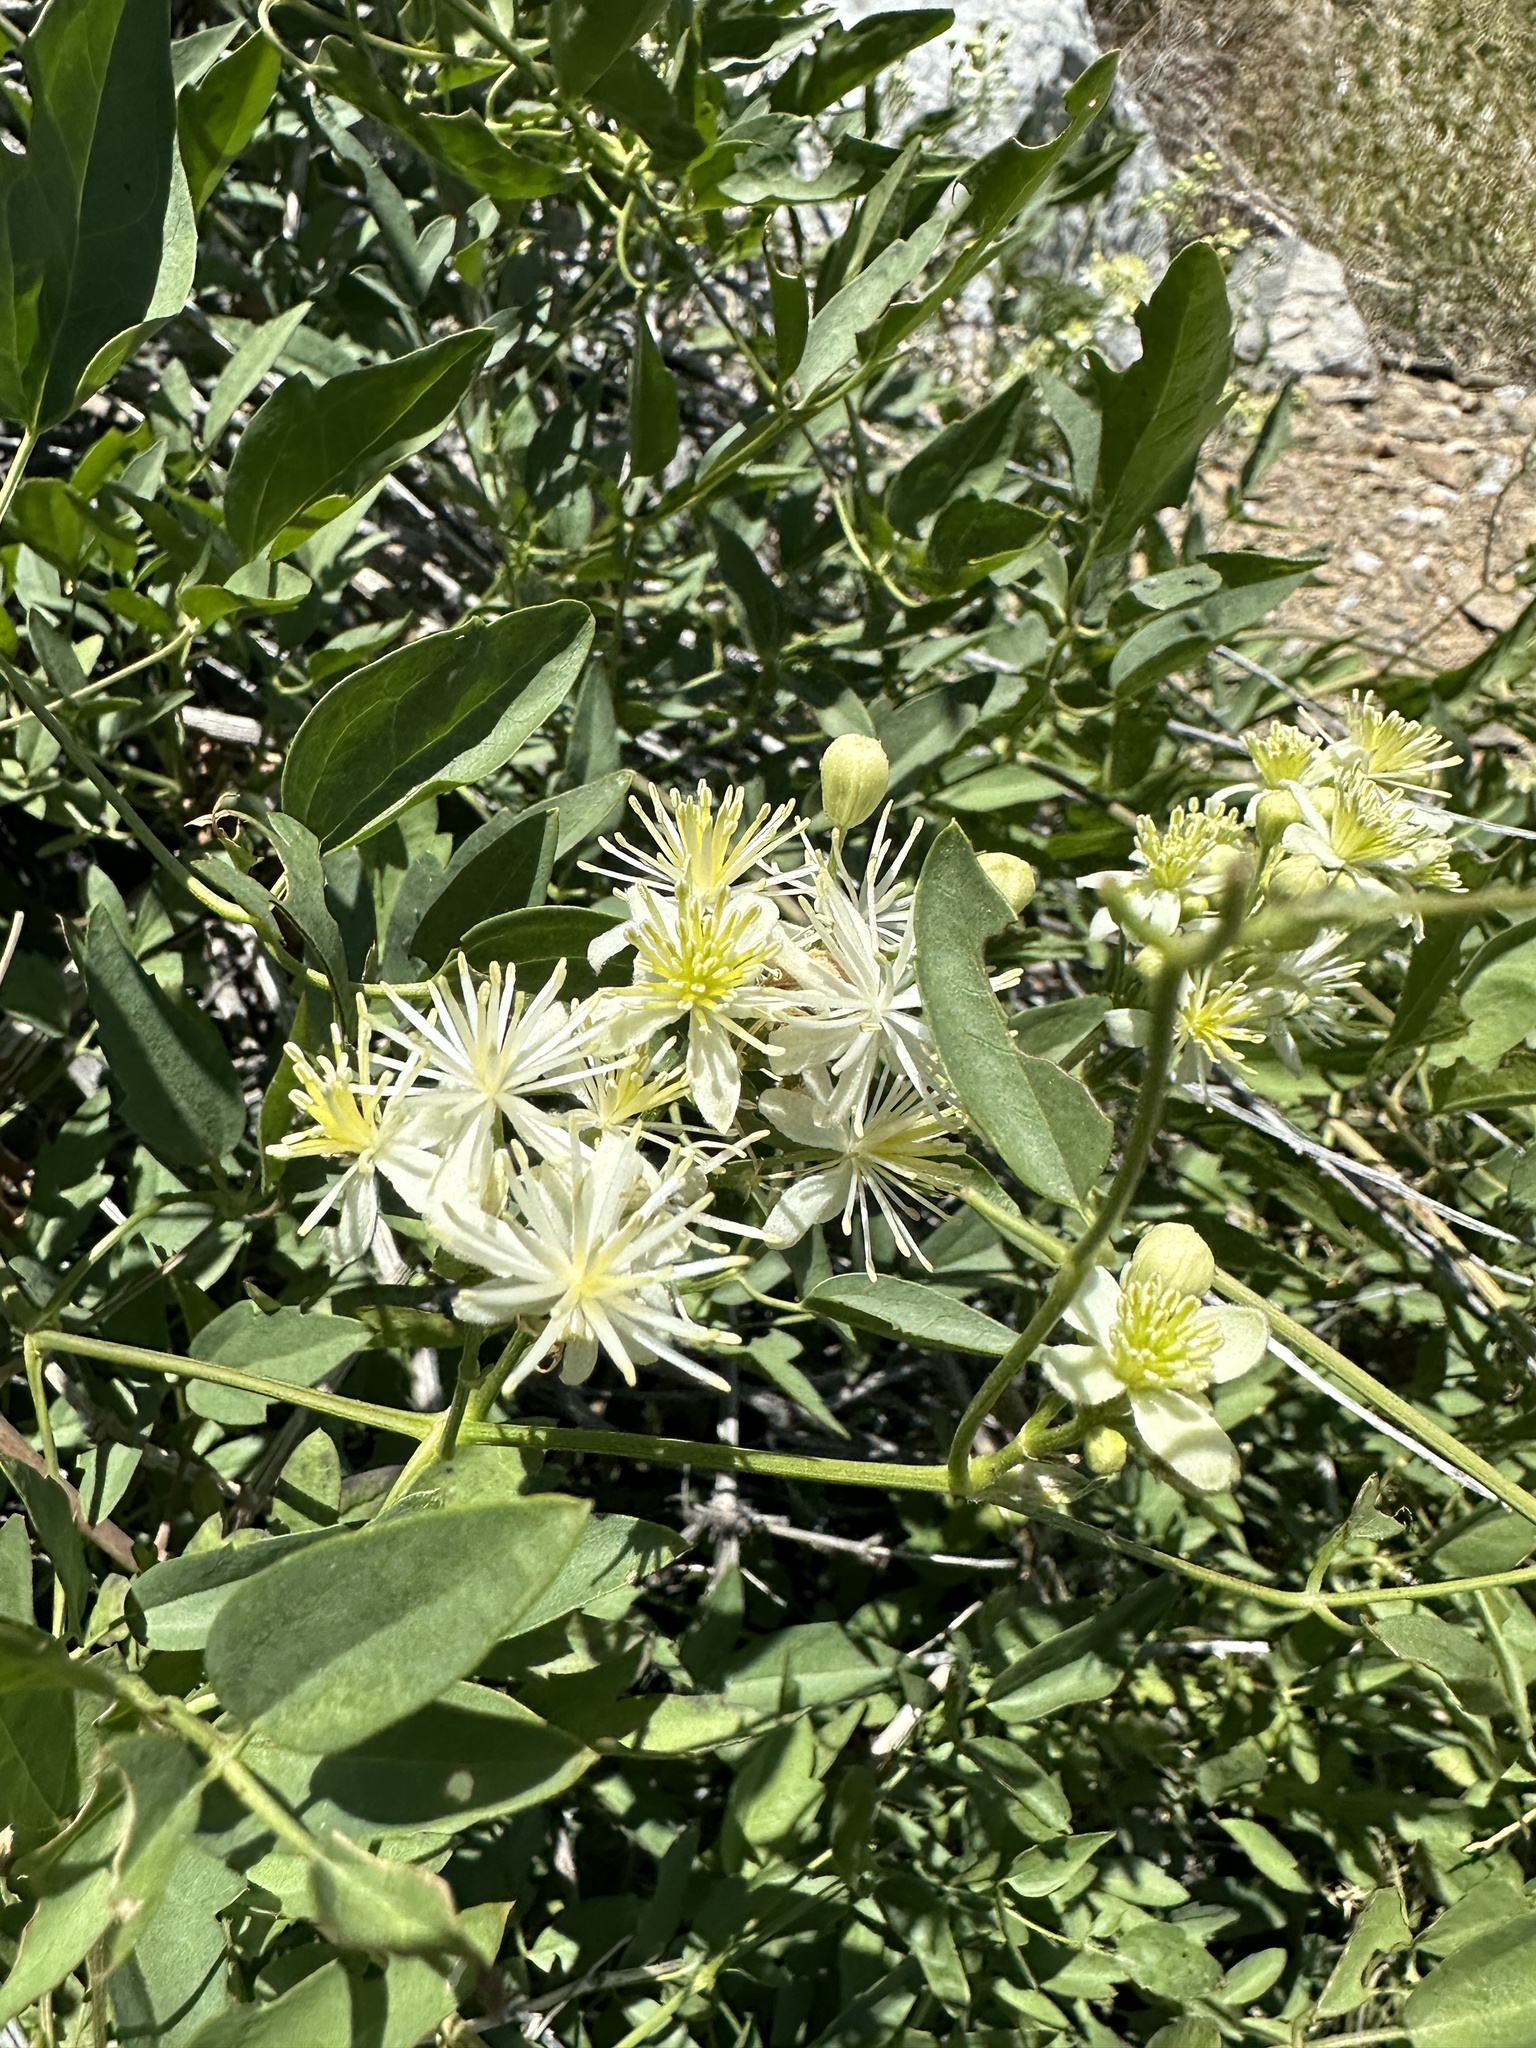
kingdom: Plantae
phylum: Tracheophyta
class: Magnoliopsida
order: Ranunculales
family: Ranunculaceae
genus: Clematis
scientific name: Clematis ligusticifolia
